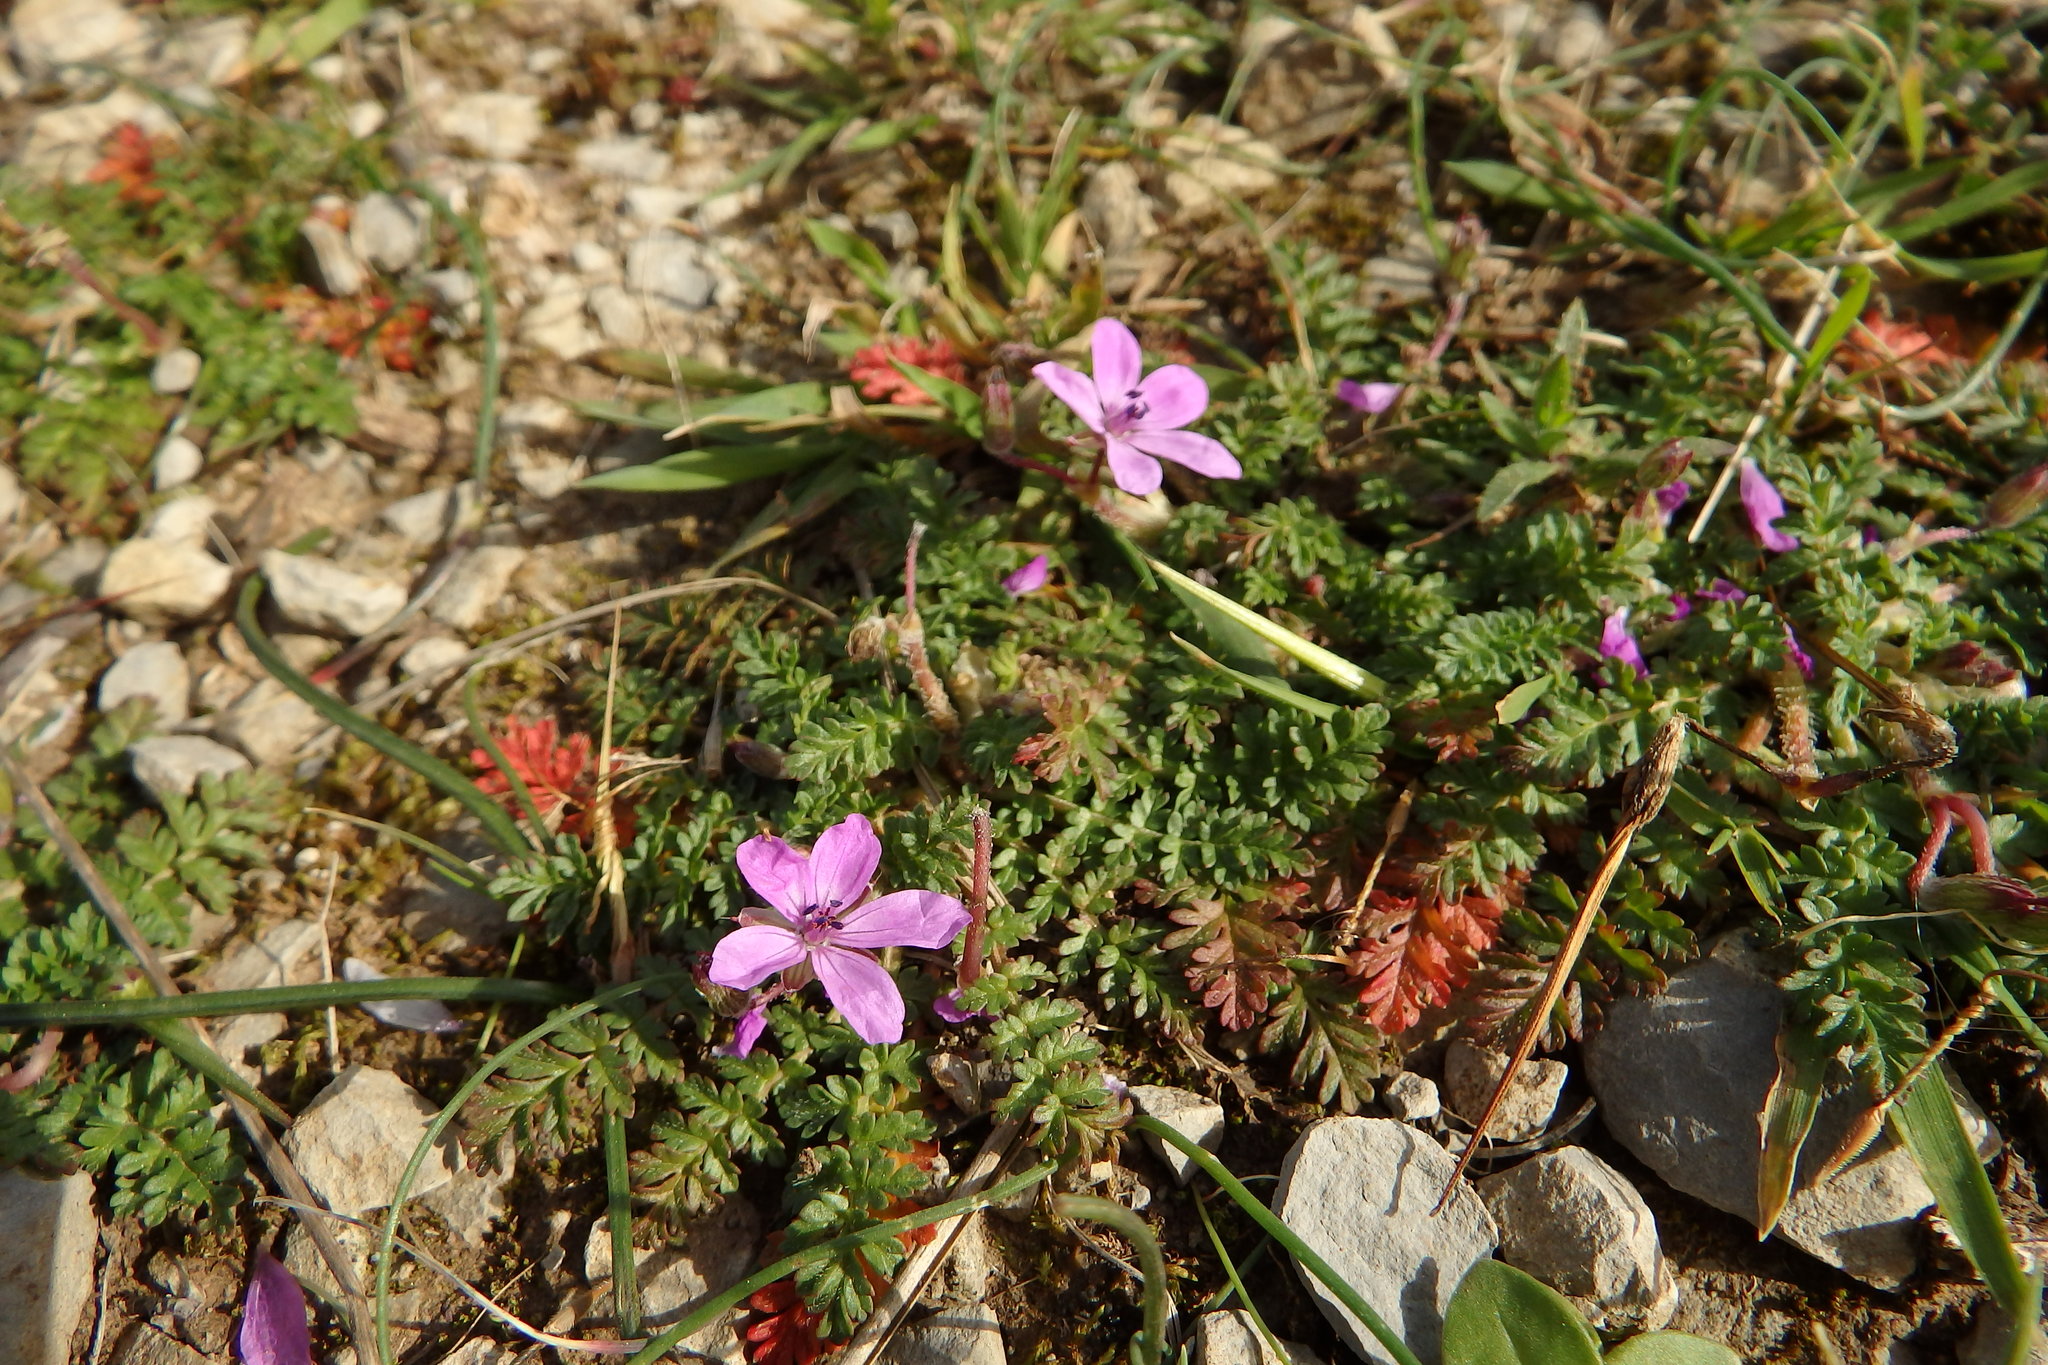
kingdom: Plantae
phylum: Tracheophyta
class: Magnoliopsida
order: Geraniales
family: Geraniaceae
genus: Erodium
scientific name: Erodium cicutarium
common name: Common stork's-bill
